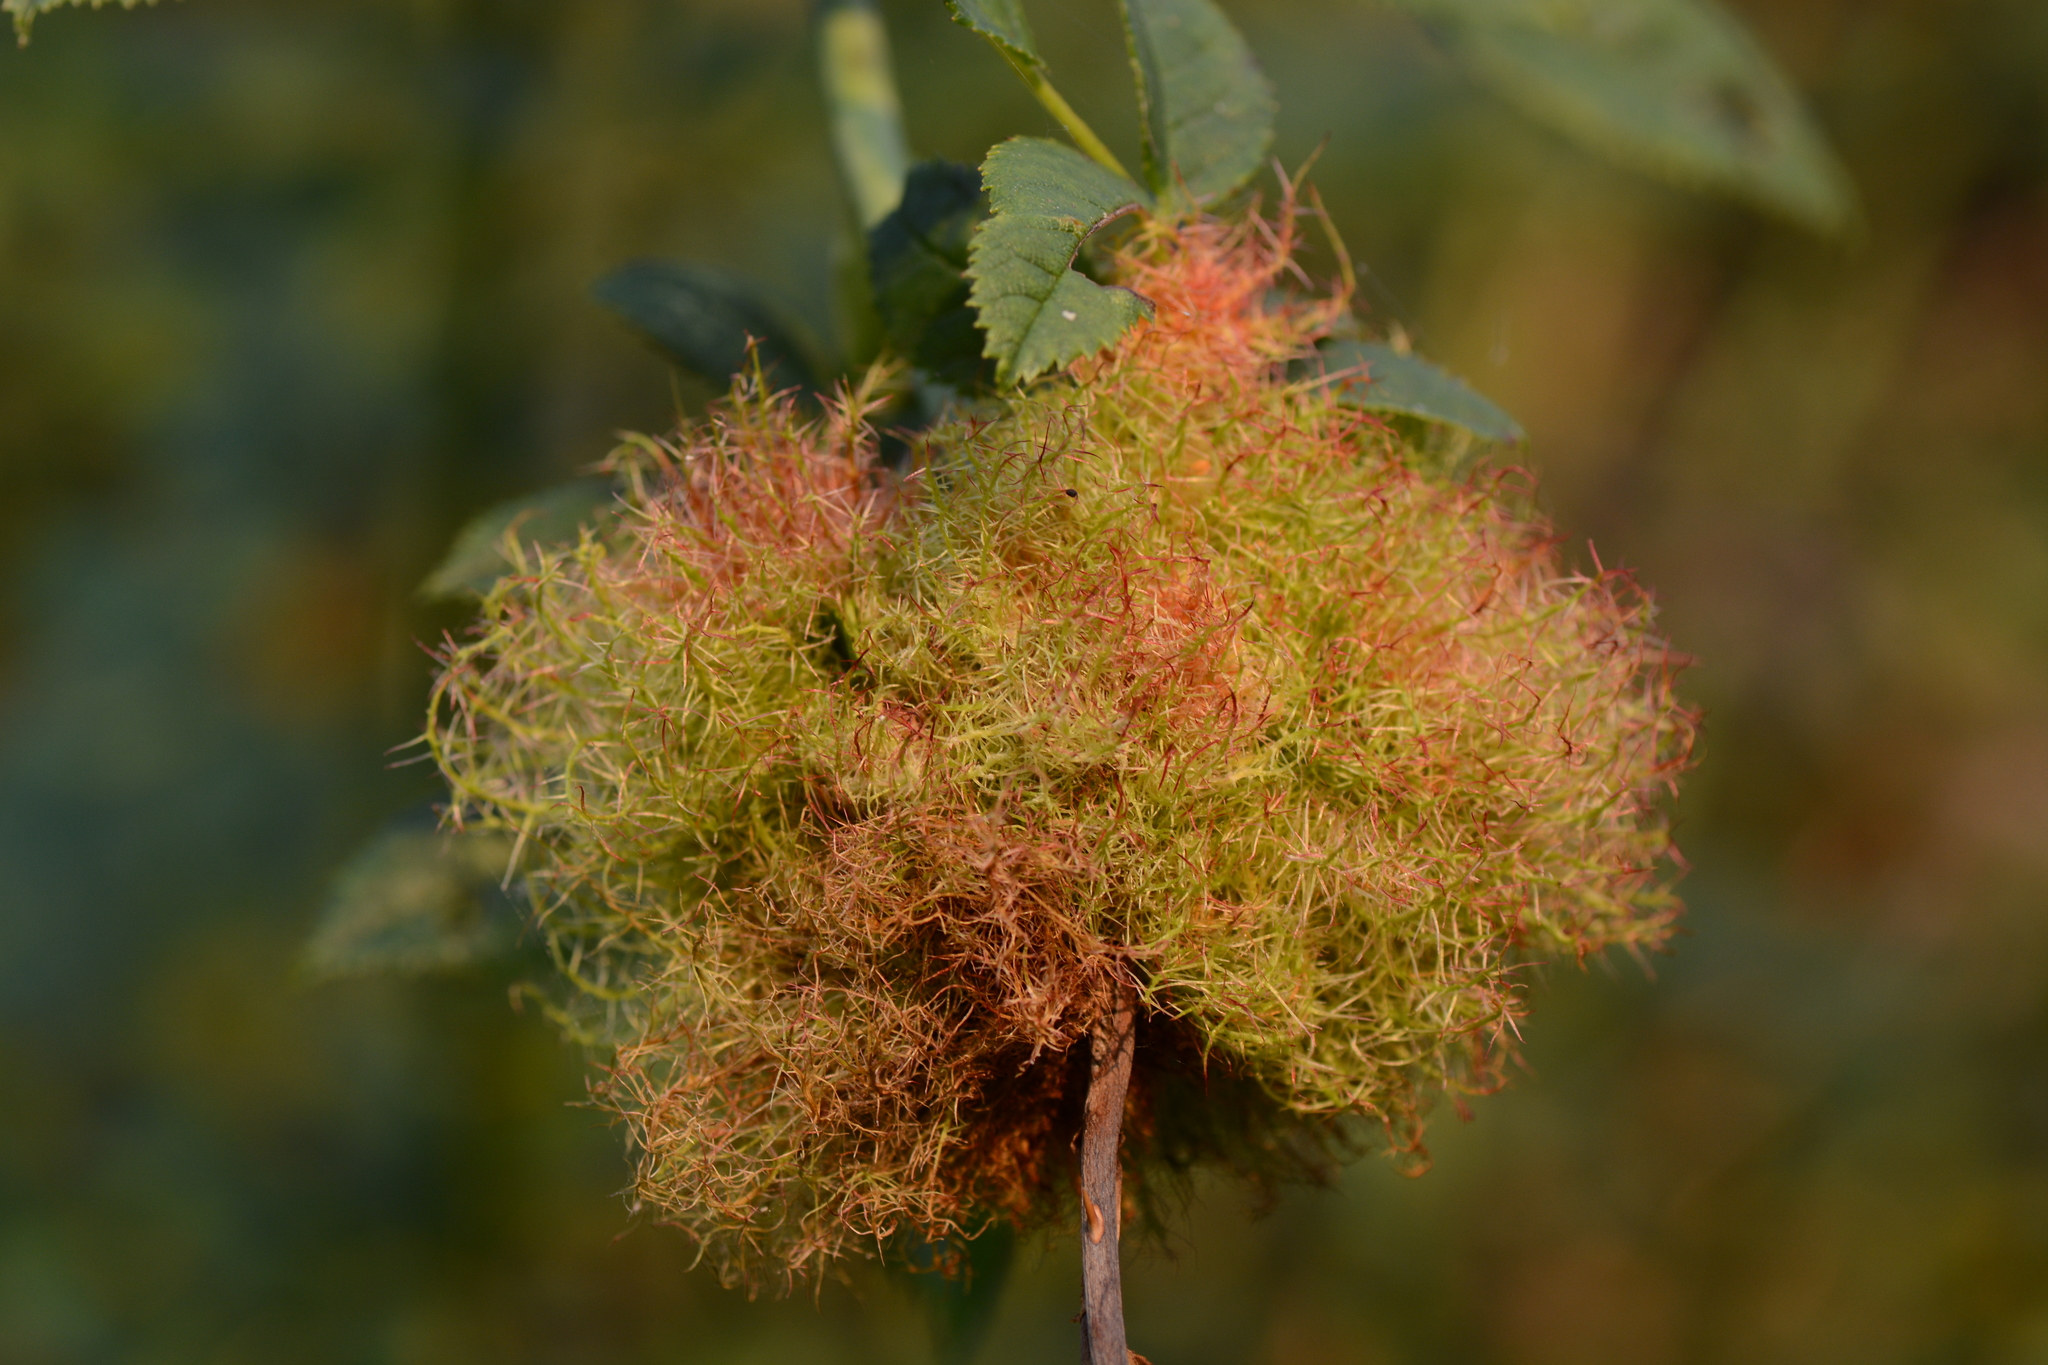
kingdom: Animalia
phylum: Arthropoda
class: Insecta
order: Hymenoptera
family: Cynipidae
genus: Diplolepis
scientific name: Diplolepis rosae
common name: Bedeguar gall
